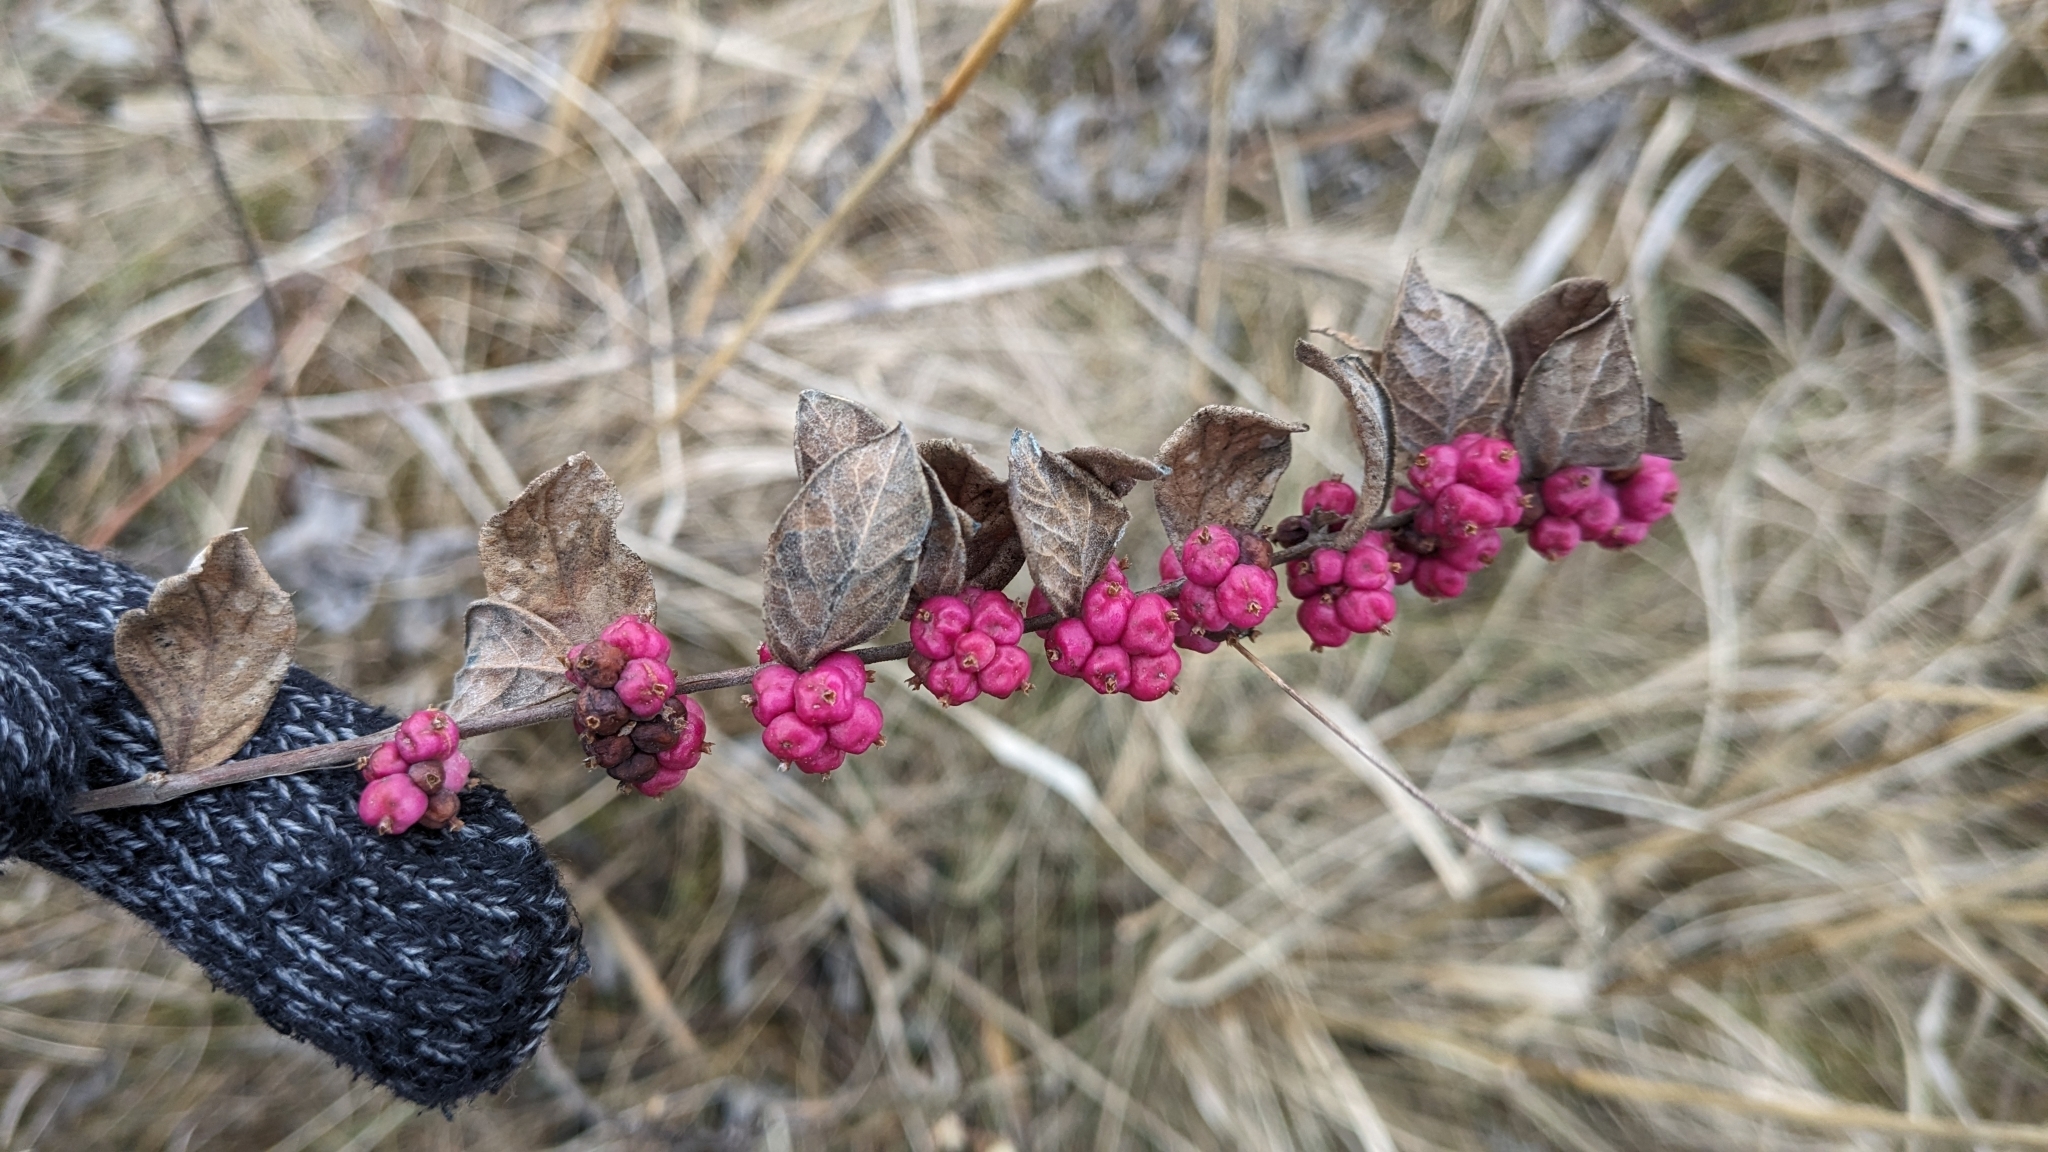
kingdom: Plantae
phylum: Tracheophyta
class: Magnoliopsida
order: Dipsacales
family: Caprifoliaceae
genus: Symphoricarpos
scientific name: Symphoricarpos orbiculatus
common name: Coralberry
